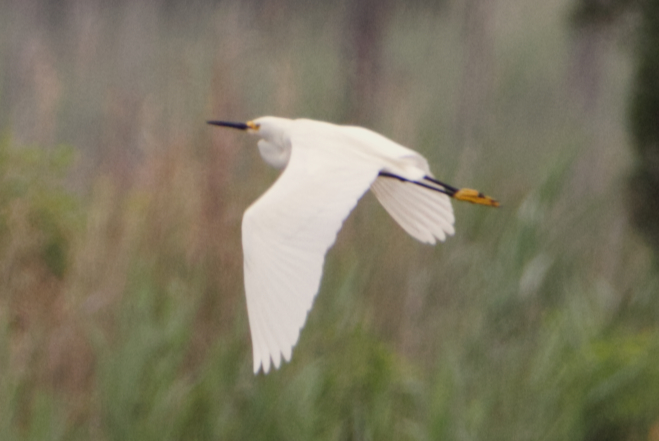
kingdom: Animalia
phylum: Chordata
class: Aves
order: Pelecaniformes
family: Ardeidae
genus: Egretta
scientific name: Egretta thula
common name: Snowy egret
